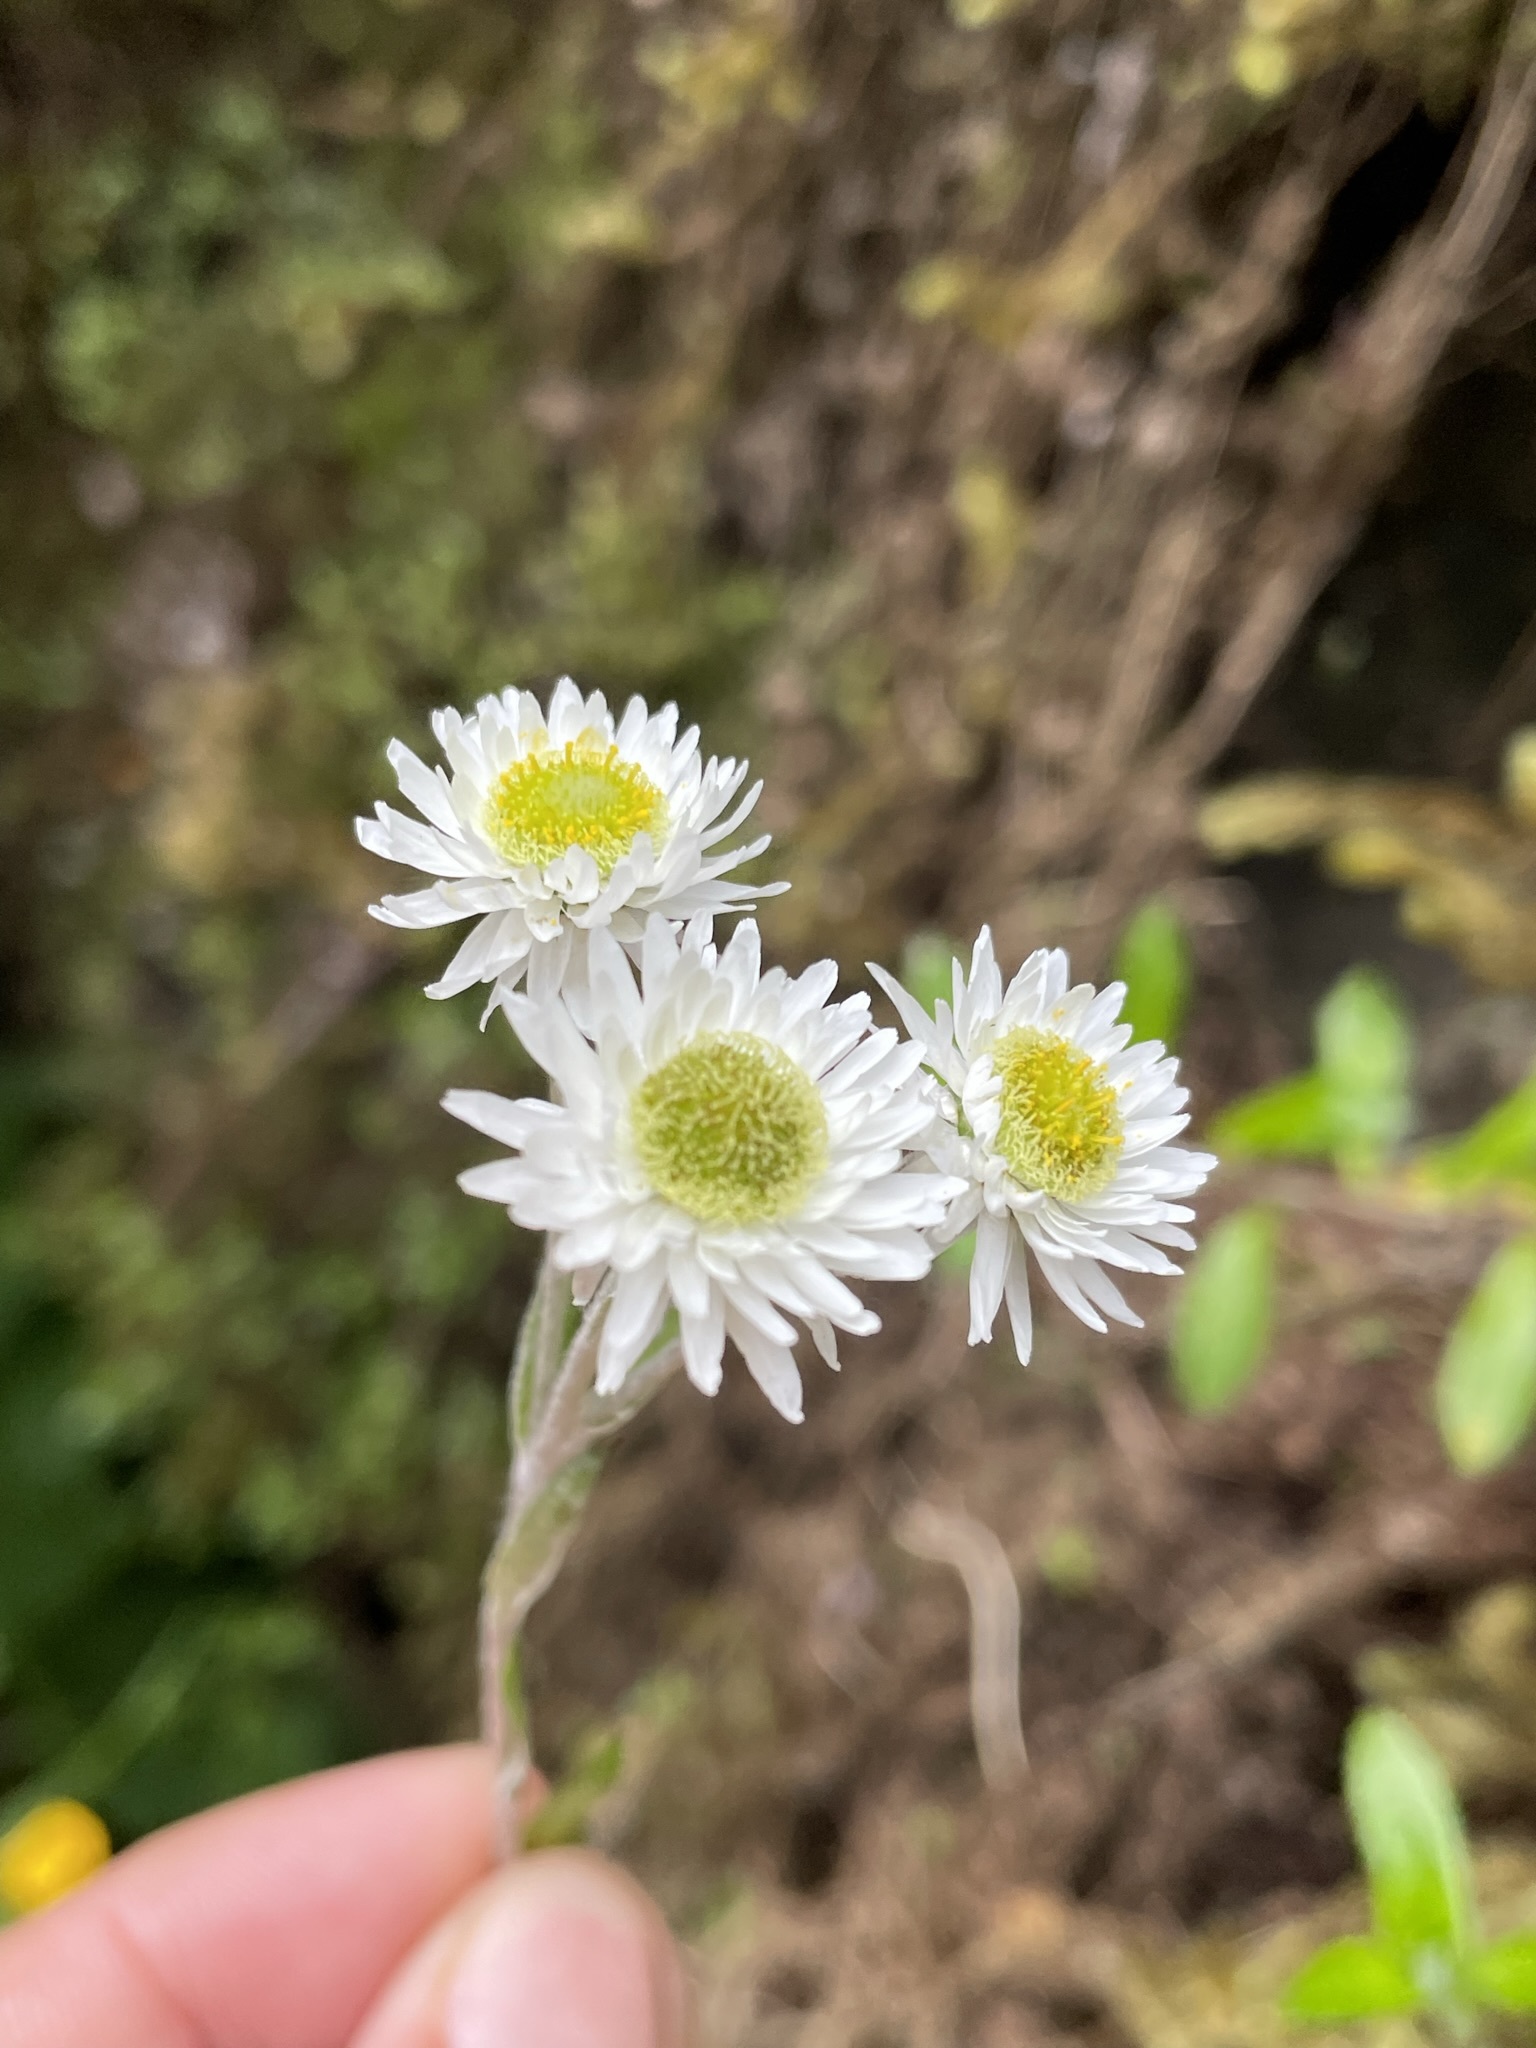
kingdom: Plantae
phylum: Tracheophyta
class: Magnoliopsida
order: Asterales
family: Asteraceae
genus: Anaphalioides
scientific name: Anaphalioides trinervis
